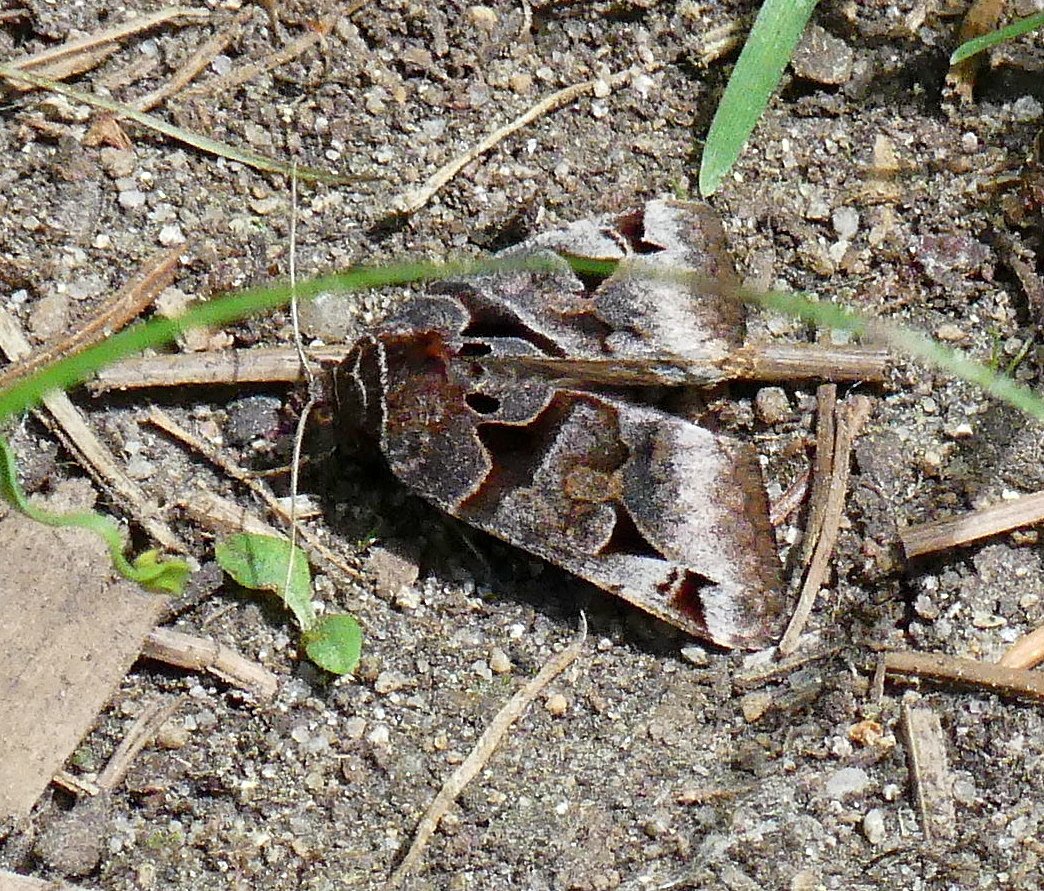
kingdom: Animalia
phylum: Arthropoda
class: Insecta
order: Lepidoptera
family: Erebidae
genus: Euclidia
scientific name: Euclidia cuspidea
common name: Toothed somberwing
